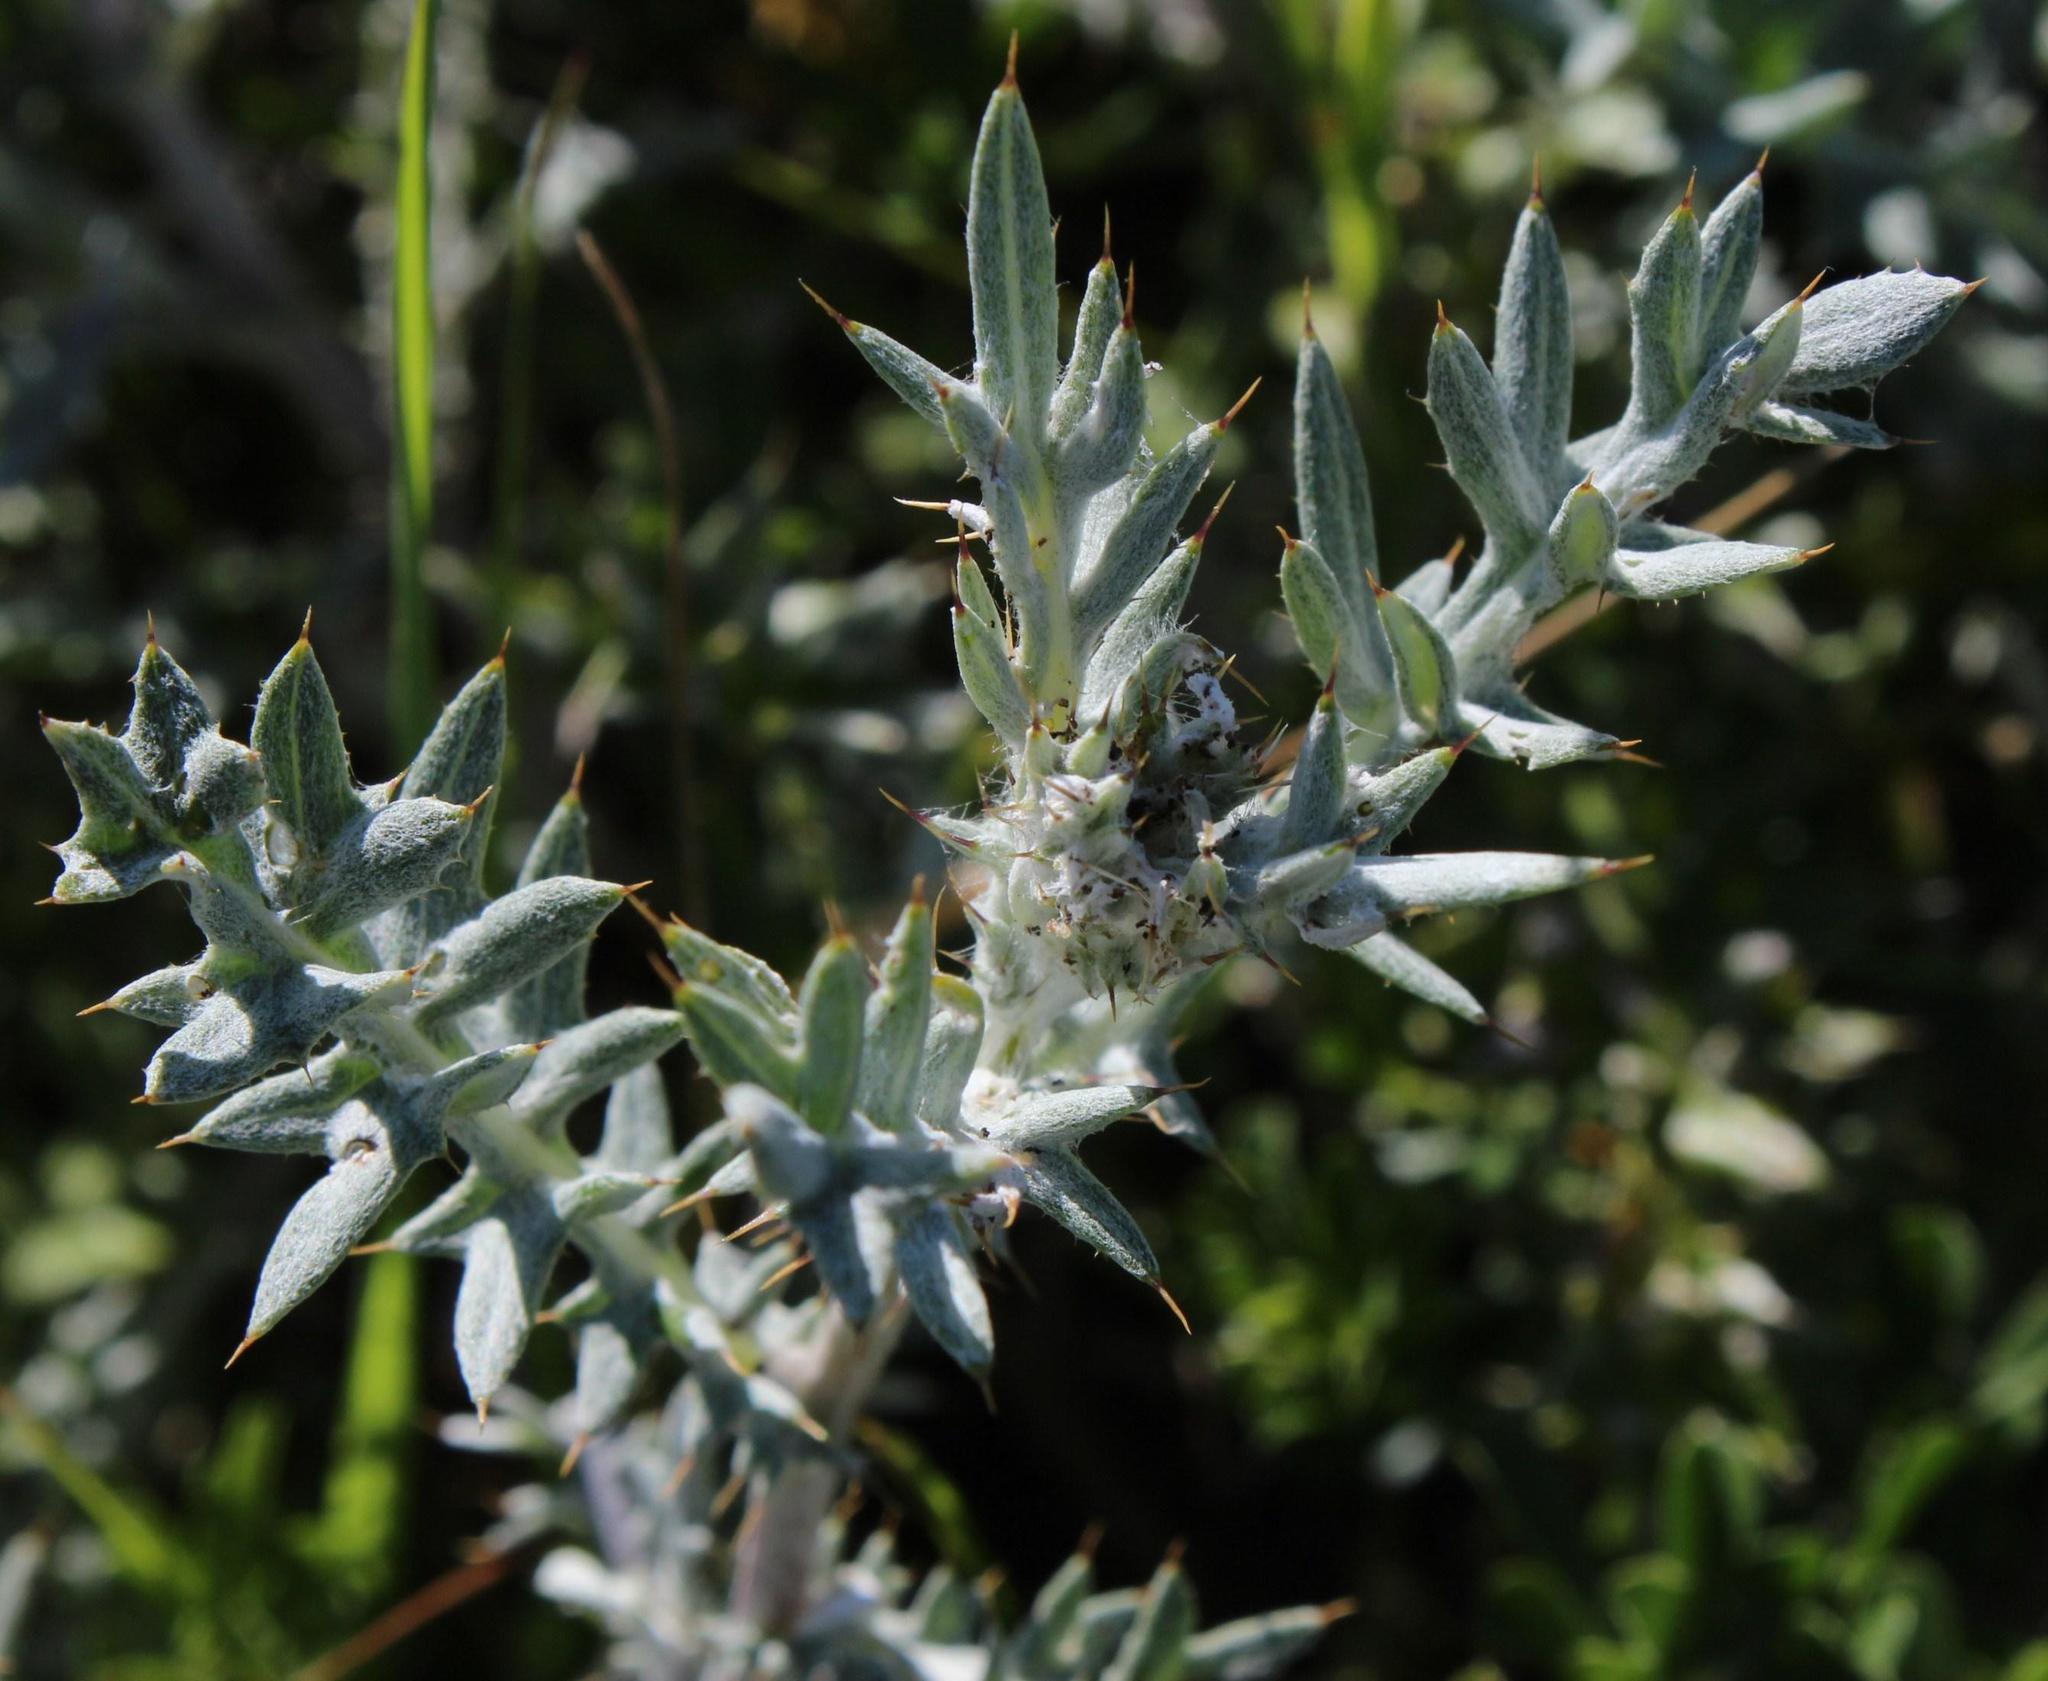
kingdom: Plantae
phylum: Tracheophyta
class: Magnoliopsida
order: Asterales
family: Asteraceae
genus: Berkheya
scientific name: Berkheya rigida
